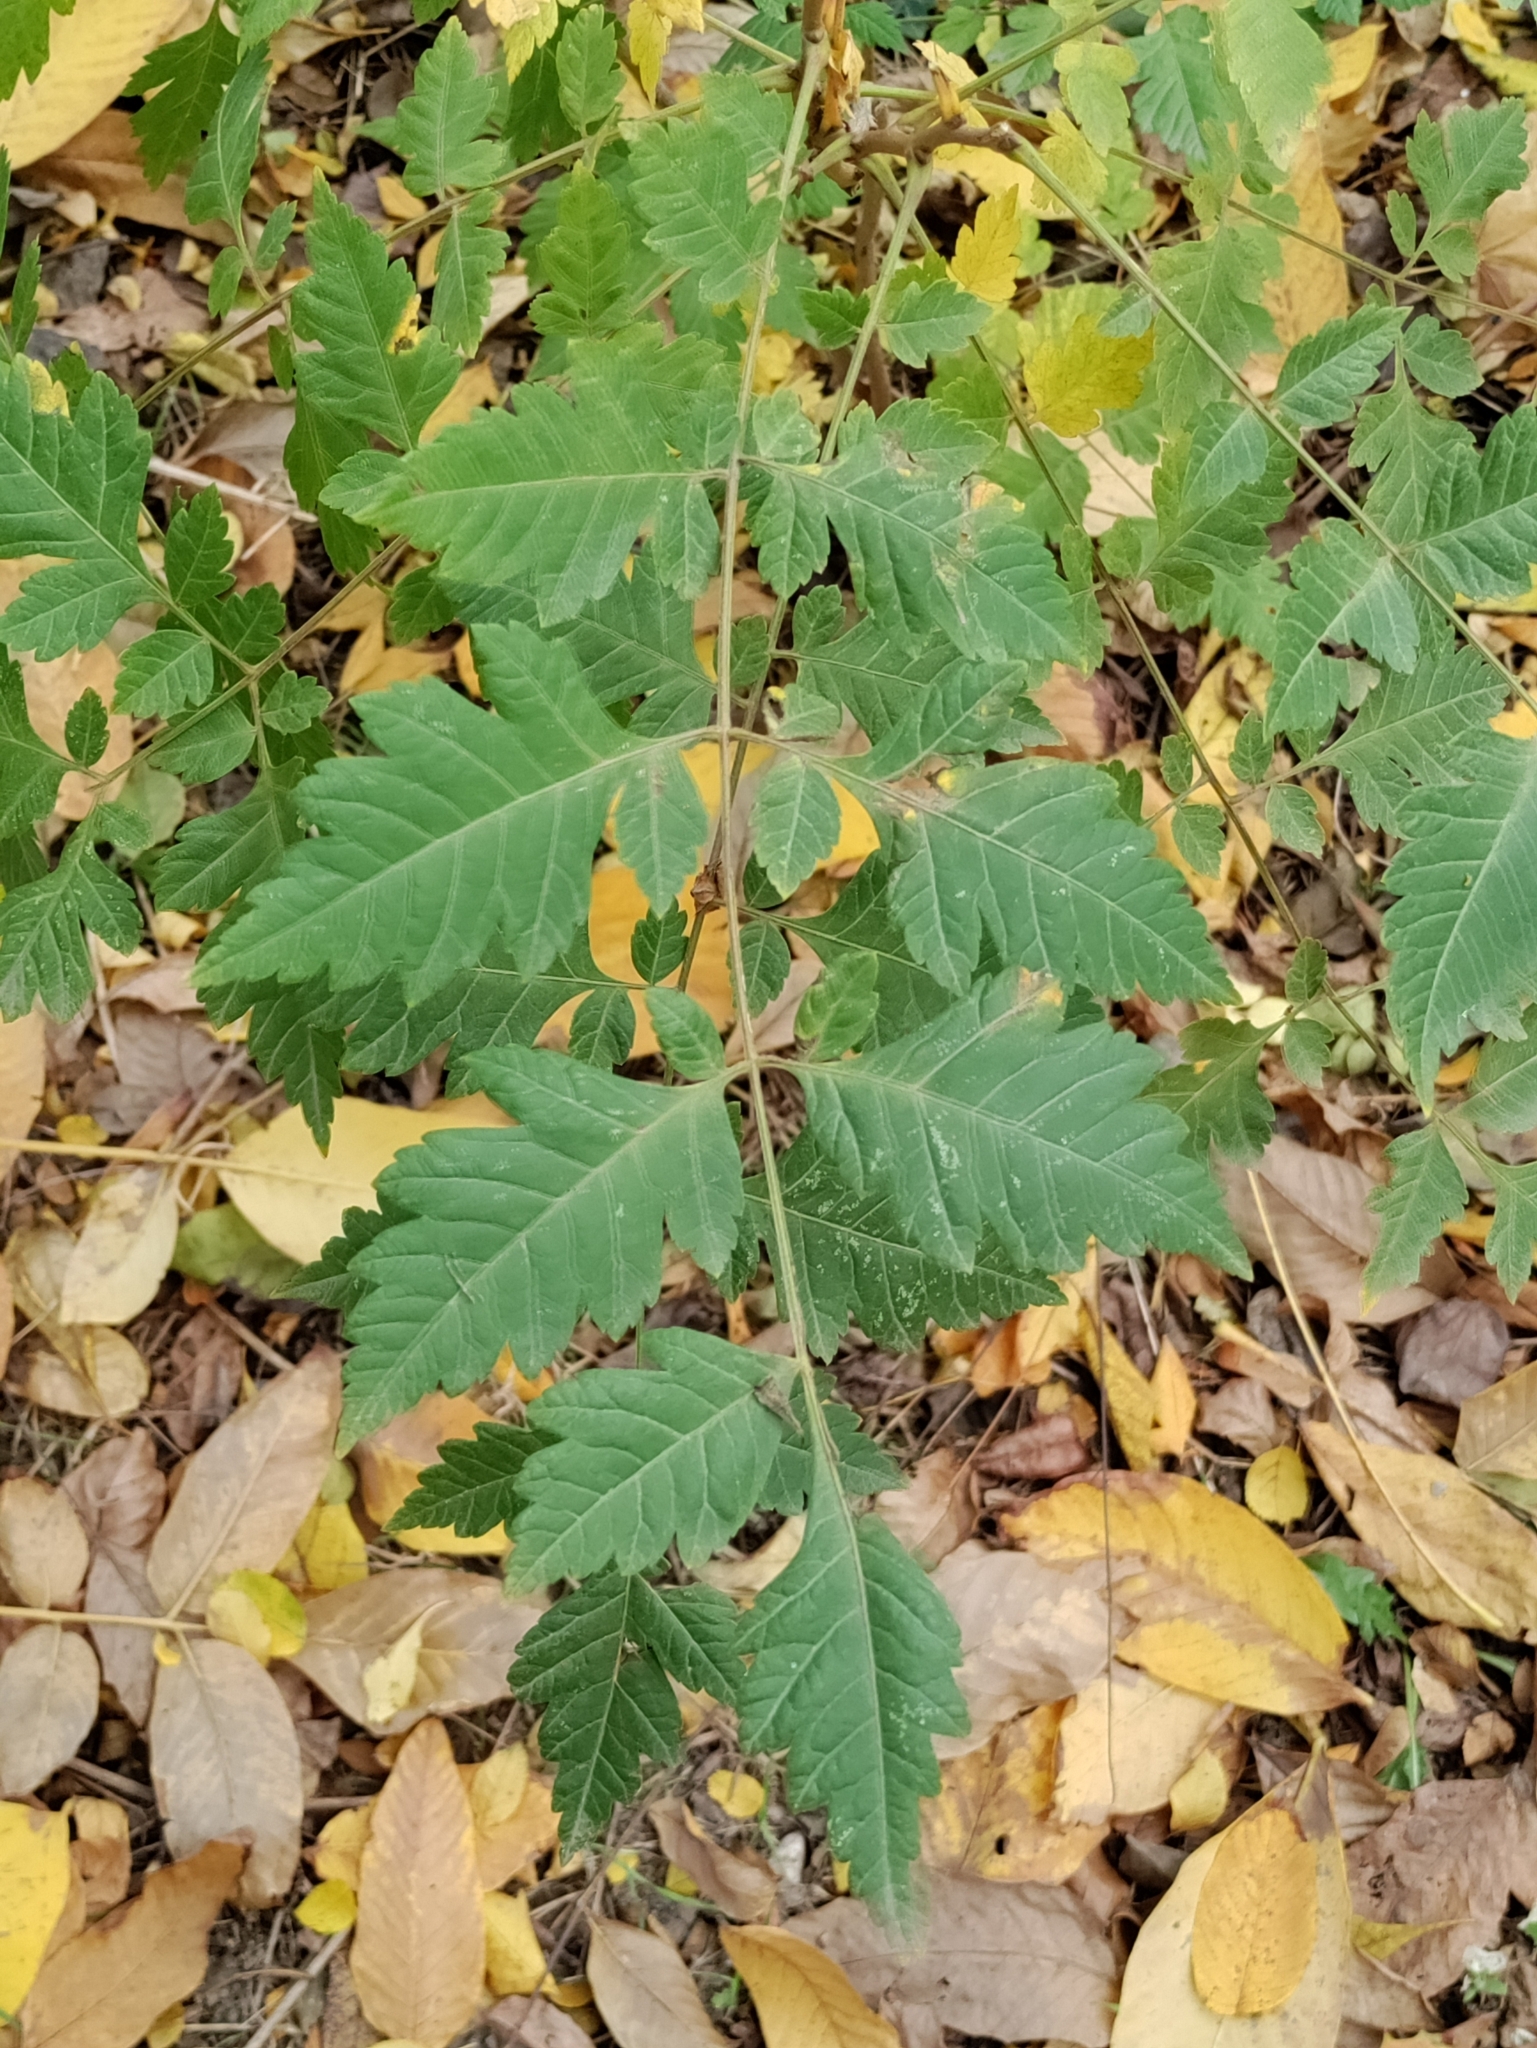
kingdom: Plantae
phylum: Tracheophyta
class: Magnoliopsida
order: Sapindales
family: Sapindaceae
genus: Koelreuteria
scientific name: Koelreuteria paniculata
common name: Pride-of-india
